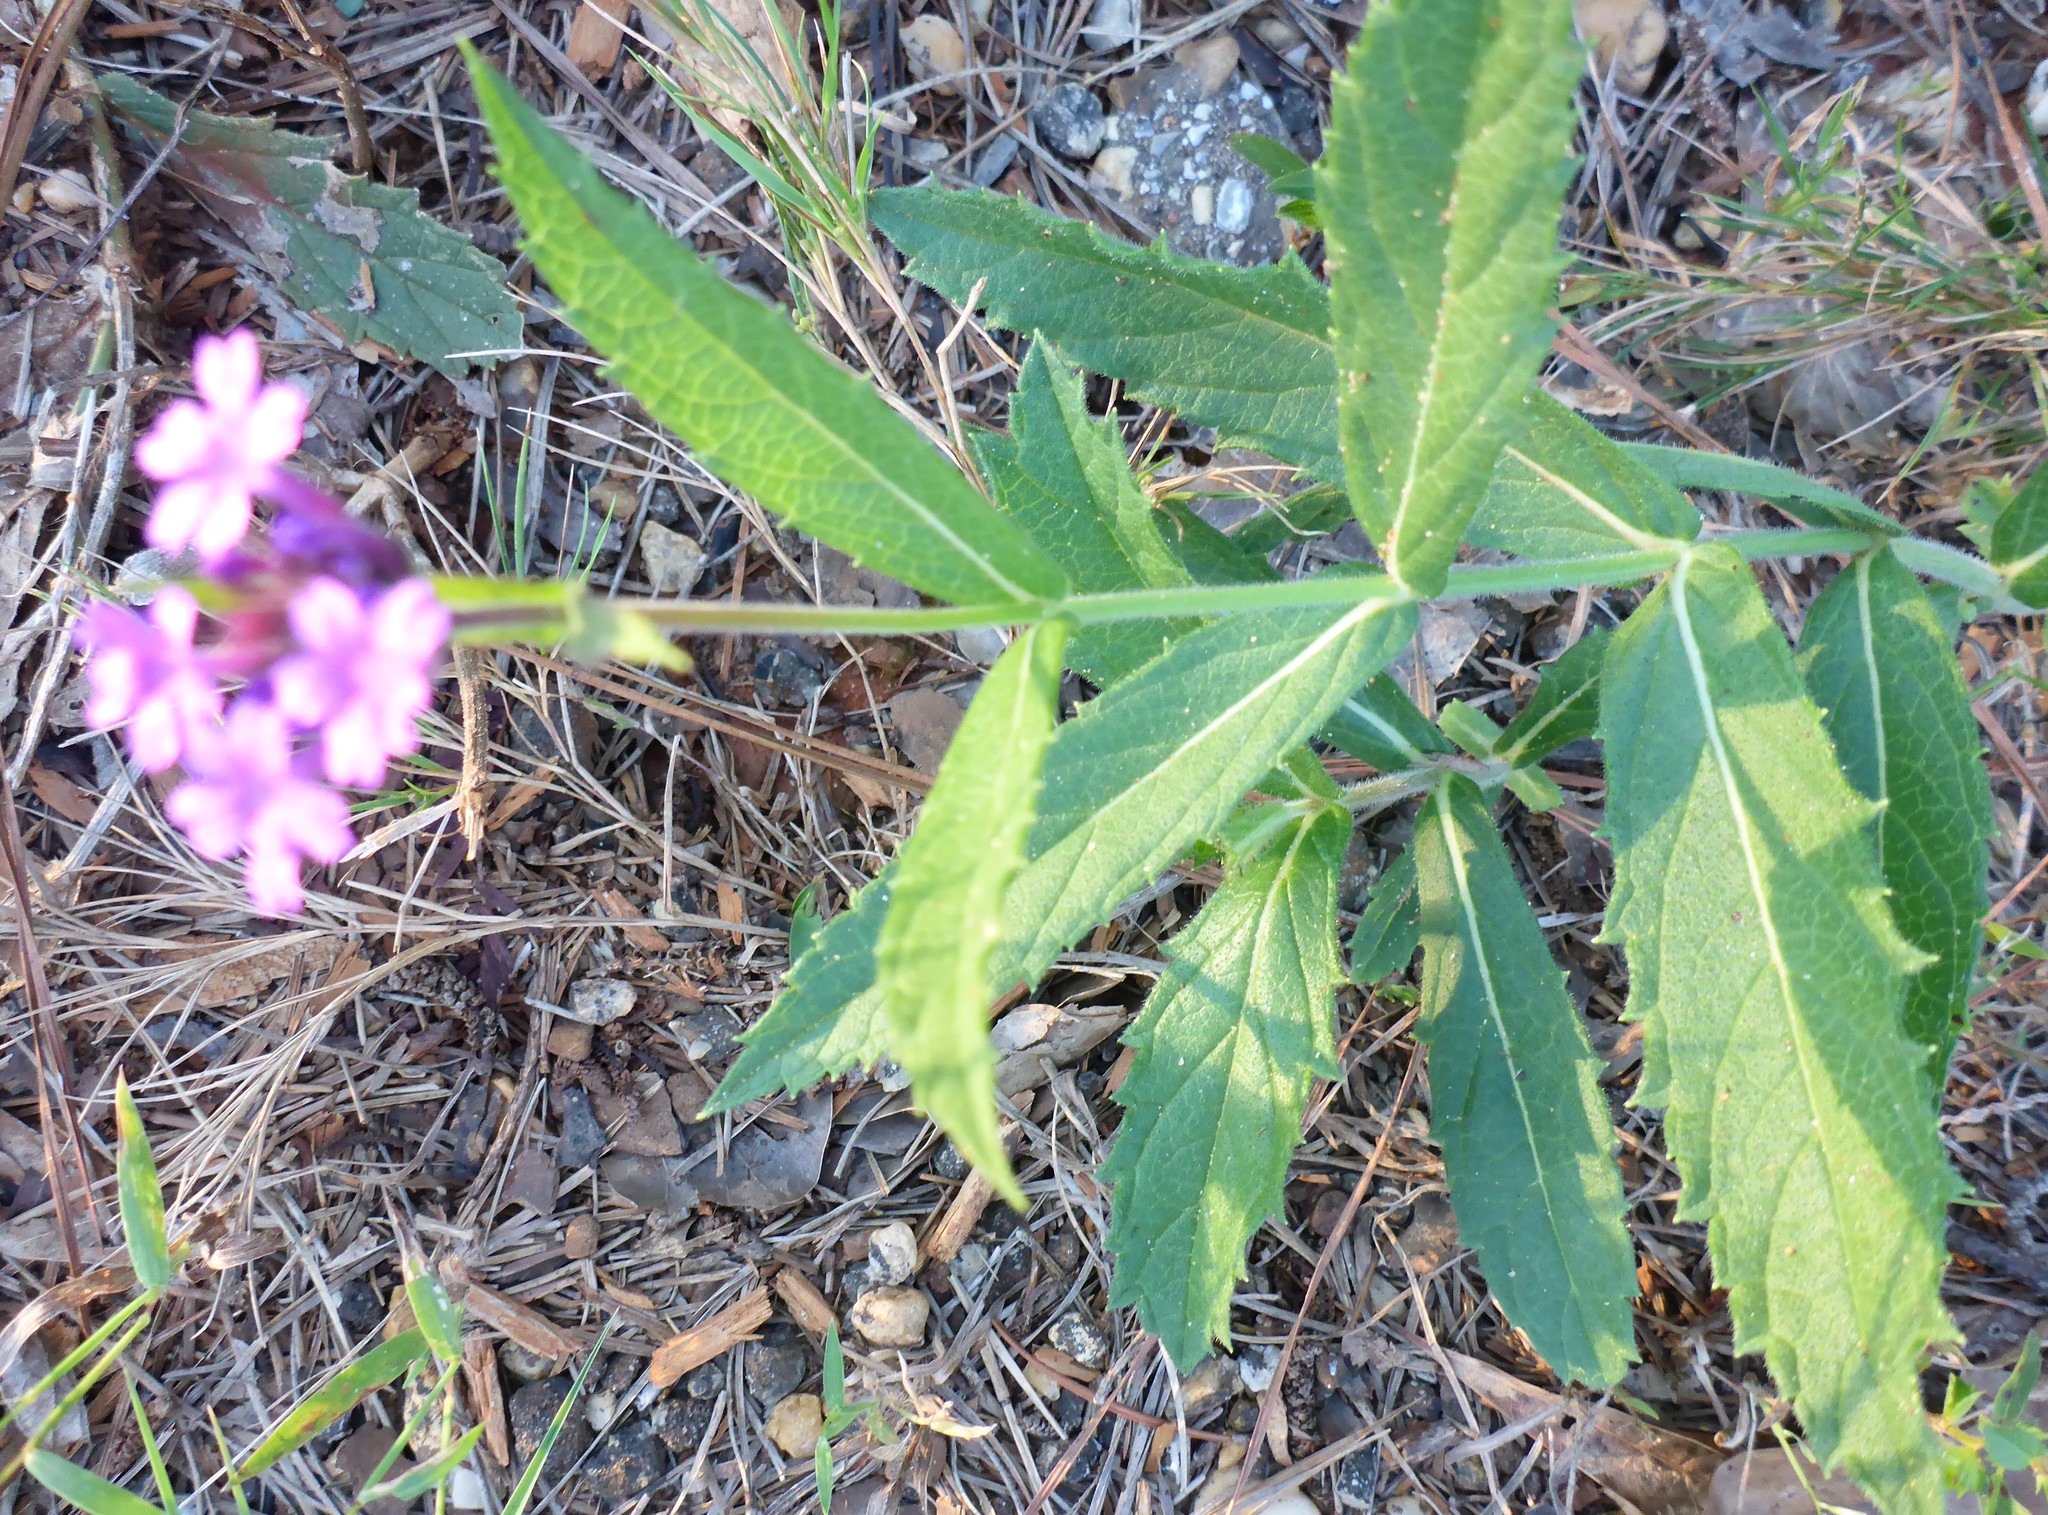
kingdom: Plantae
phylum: Tracheophyta
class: Magnoliopsida
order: Lamiales
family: Verbenaceae
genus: Verbena
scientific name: Verbena rigida
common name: Slender vervain
